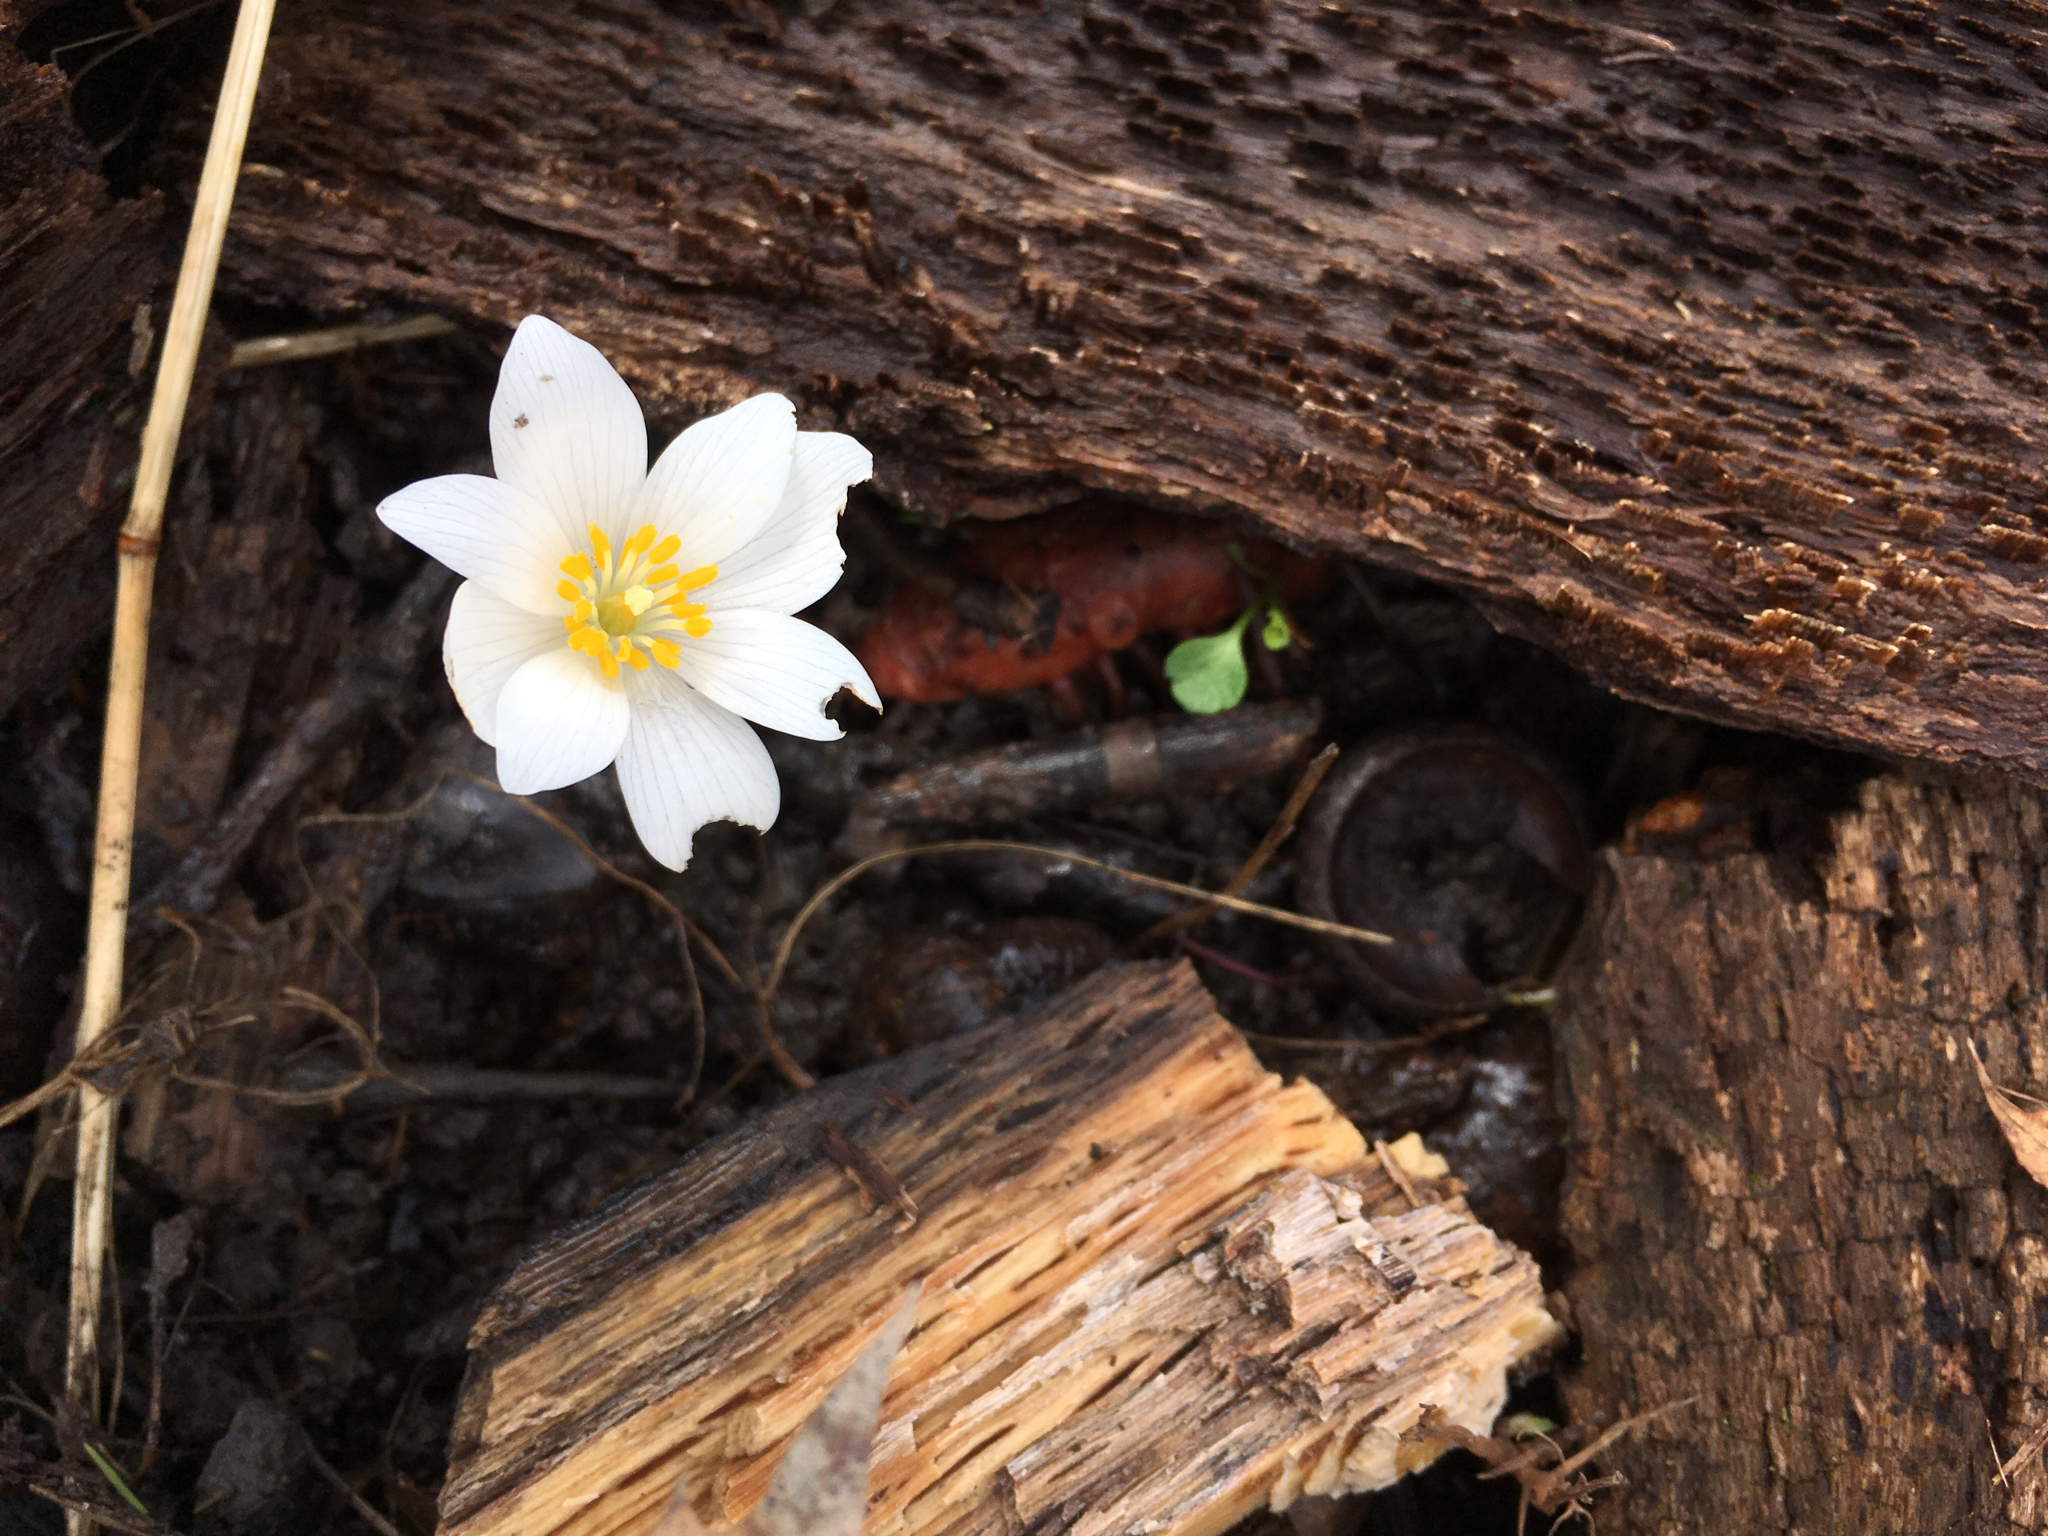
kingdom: Plantae
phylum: Tracheophyta
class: Magnoliopsida
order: Ranunculales
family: Papaveraceae
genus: Sanguinaria
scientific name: Sanguinaria canadensis
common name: Bloodroot
